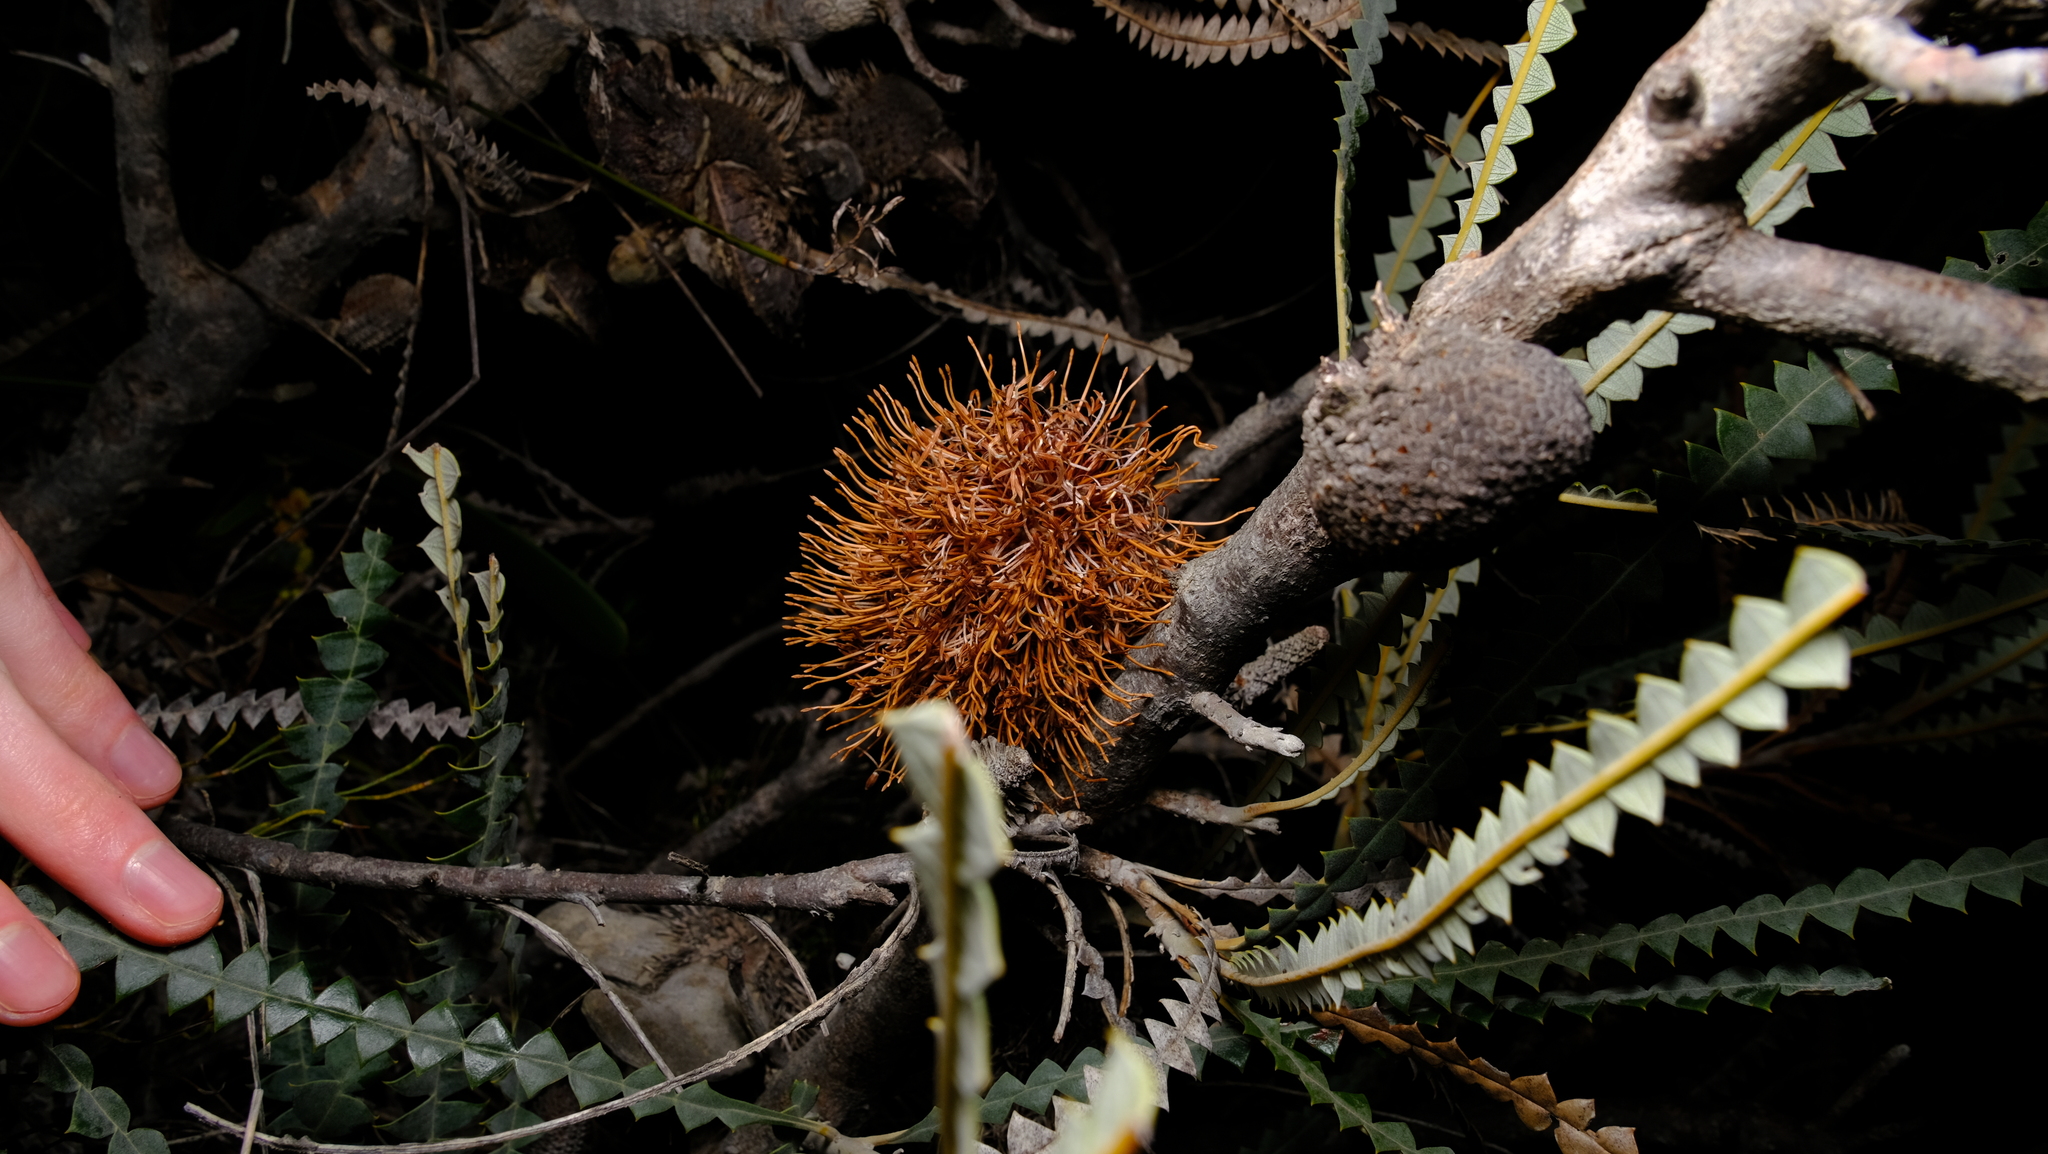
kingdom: Plantae
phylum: Tracheophyta
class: Magnoliopsida
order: Proteales
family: Proteaceae
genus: Banksia
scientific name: Banksia candolleana
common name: Propeller banksia
